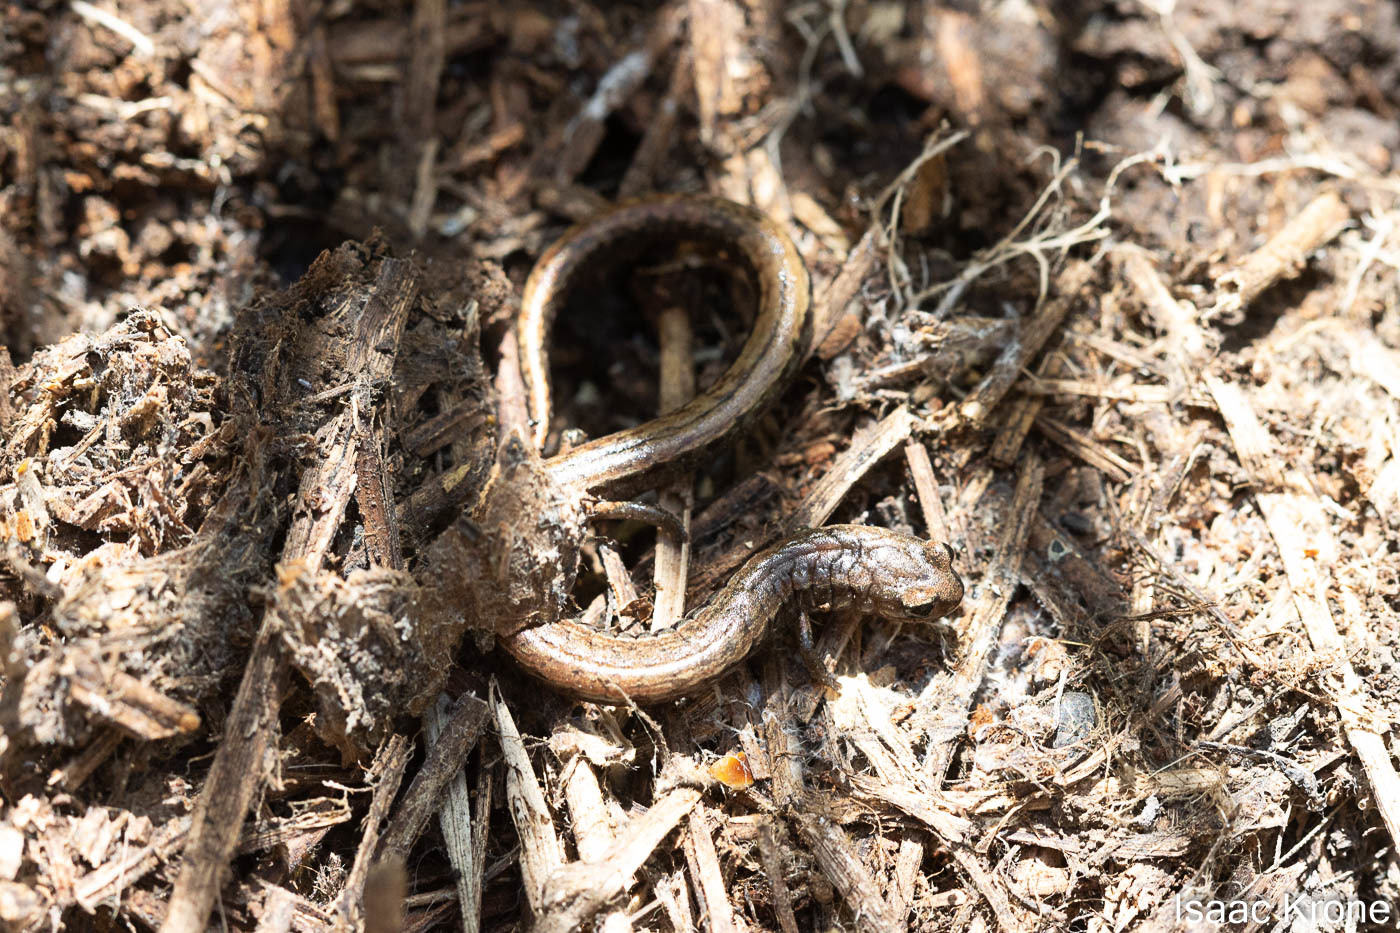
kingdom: Animalia
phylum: Chordata
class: Amphibia
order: Caudata
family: Plethodontidae
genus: Batrachoseps
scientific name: Batrachoseps attenuatus
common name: California slender salamander
